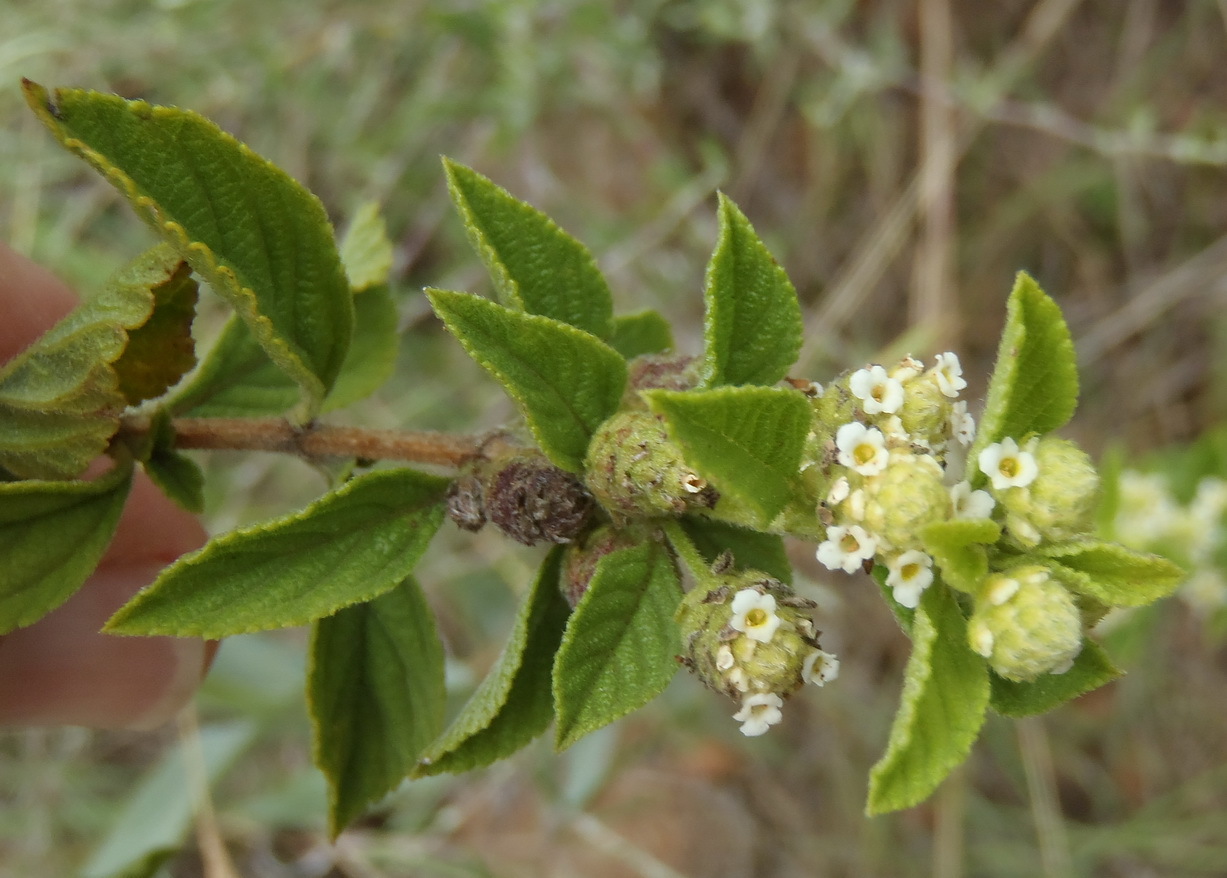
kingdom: Plantae
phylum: Tracheophyta
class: Magnoliopsida
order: Lamiales
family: Verbenaceae
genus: Lippia
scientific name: Lippia rehmannii
